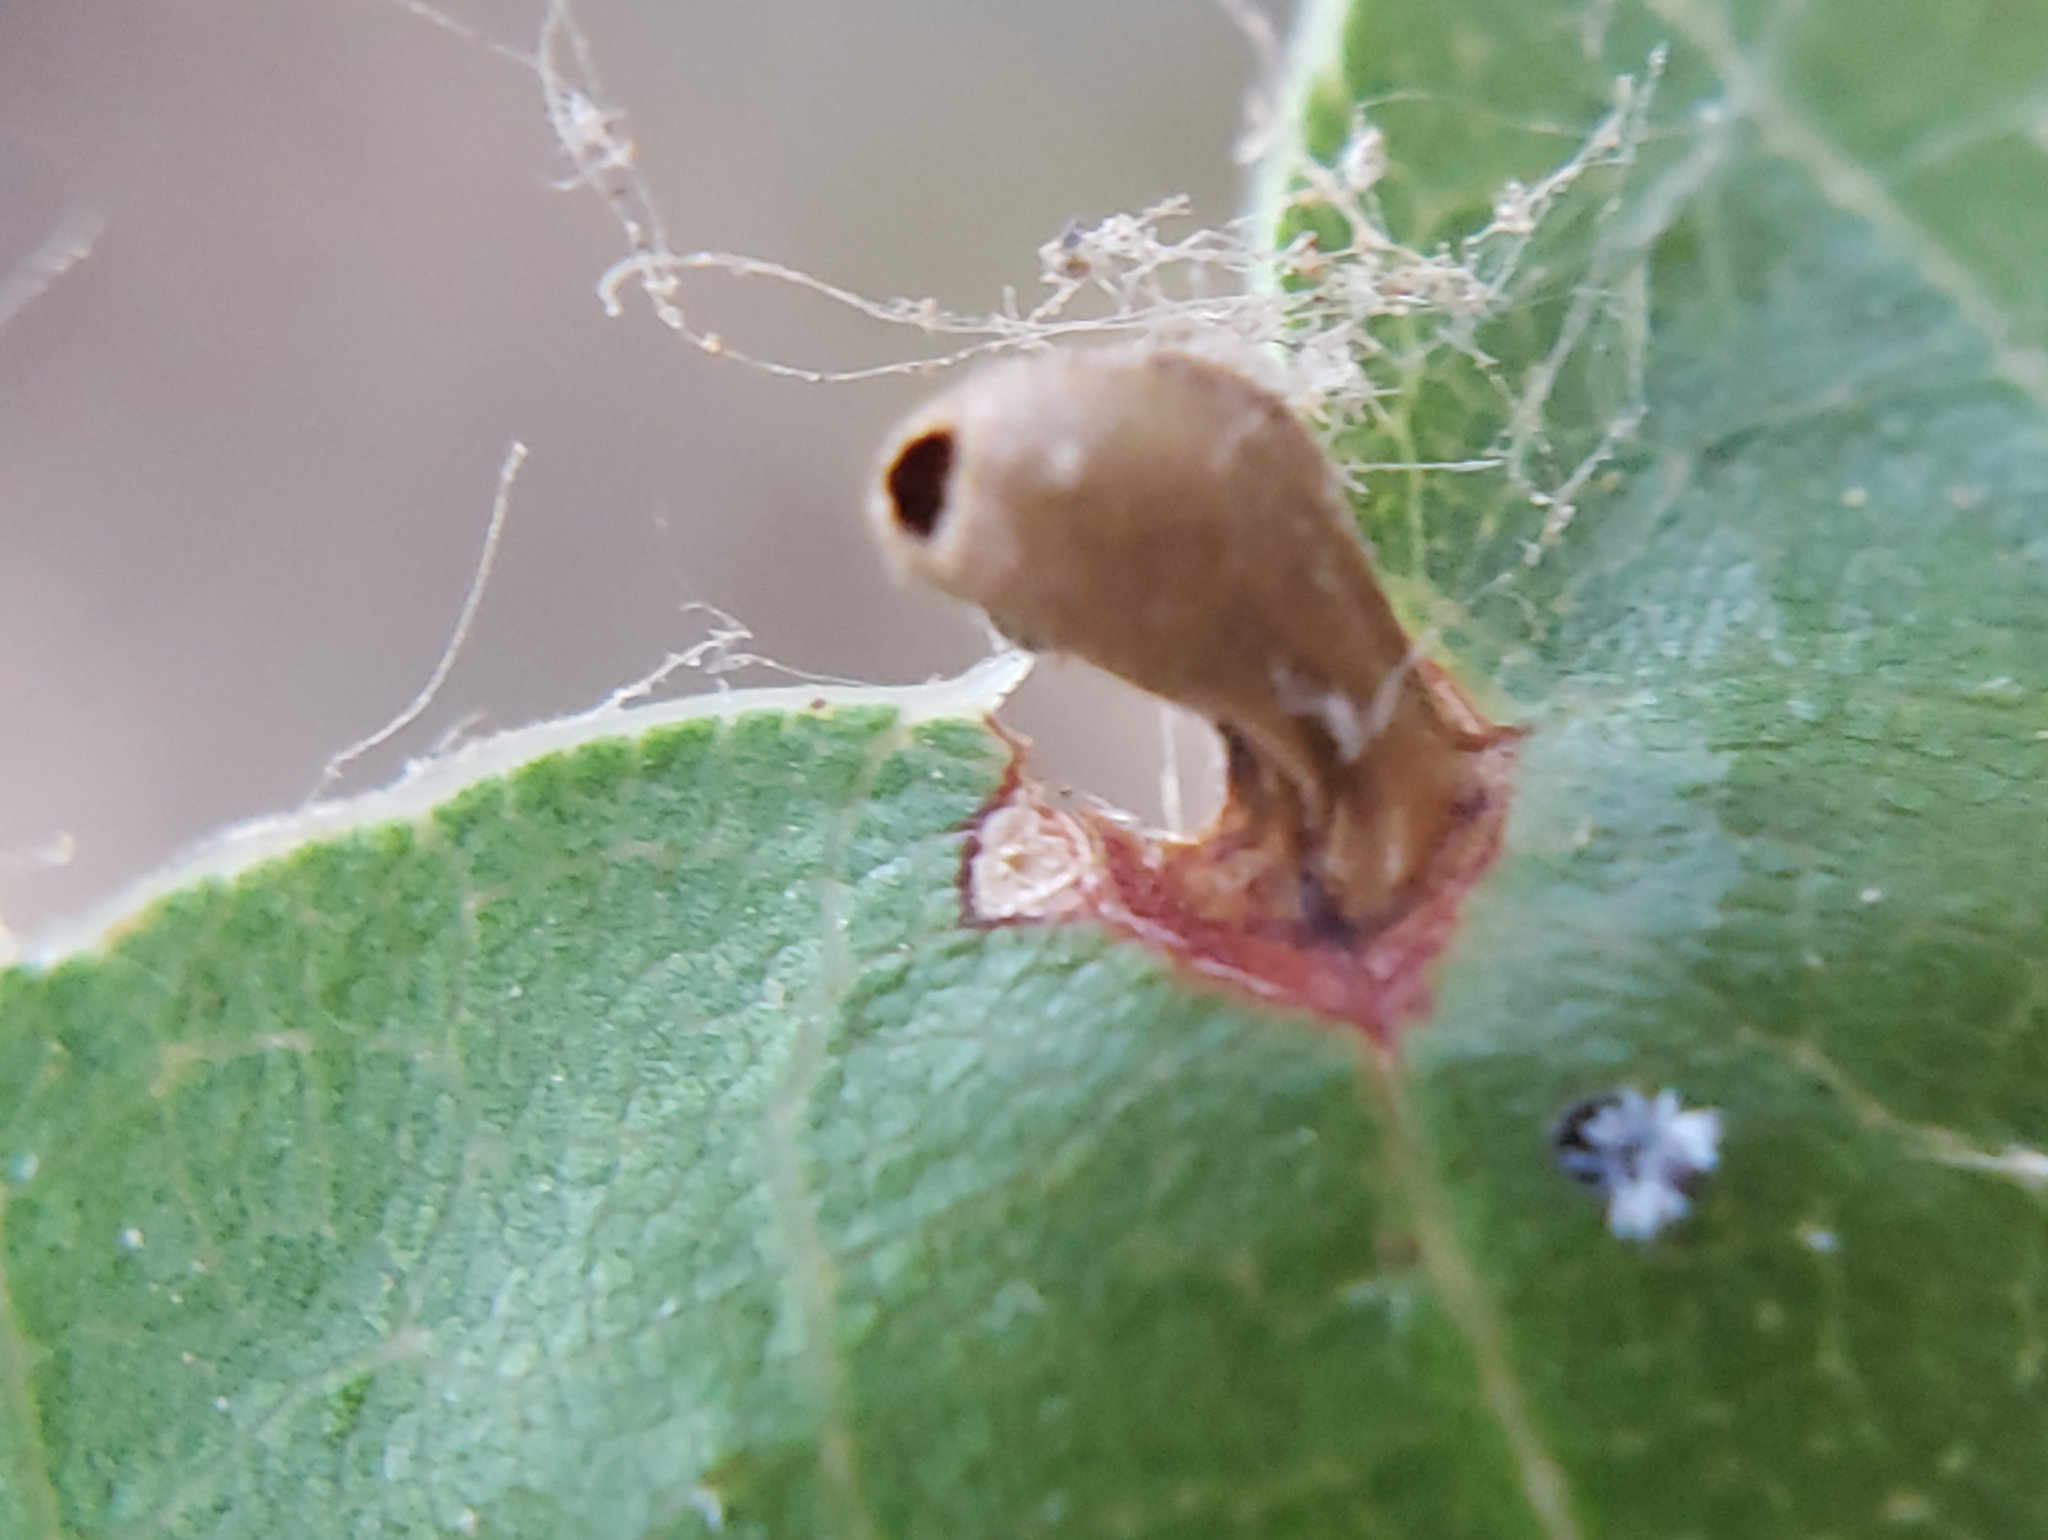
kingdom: Animalia
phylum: Arthropoda
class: Insecta
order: Hymenoptera
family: Cynipidae
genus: Dryocosmus
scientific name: Dryocosmus
